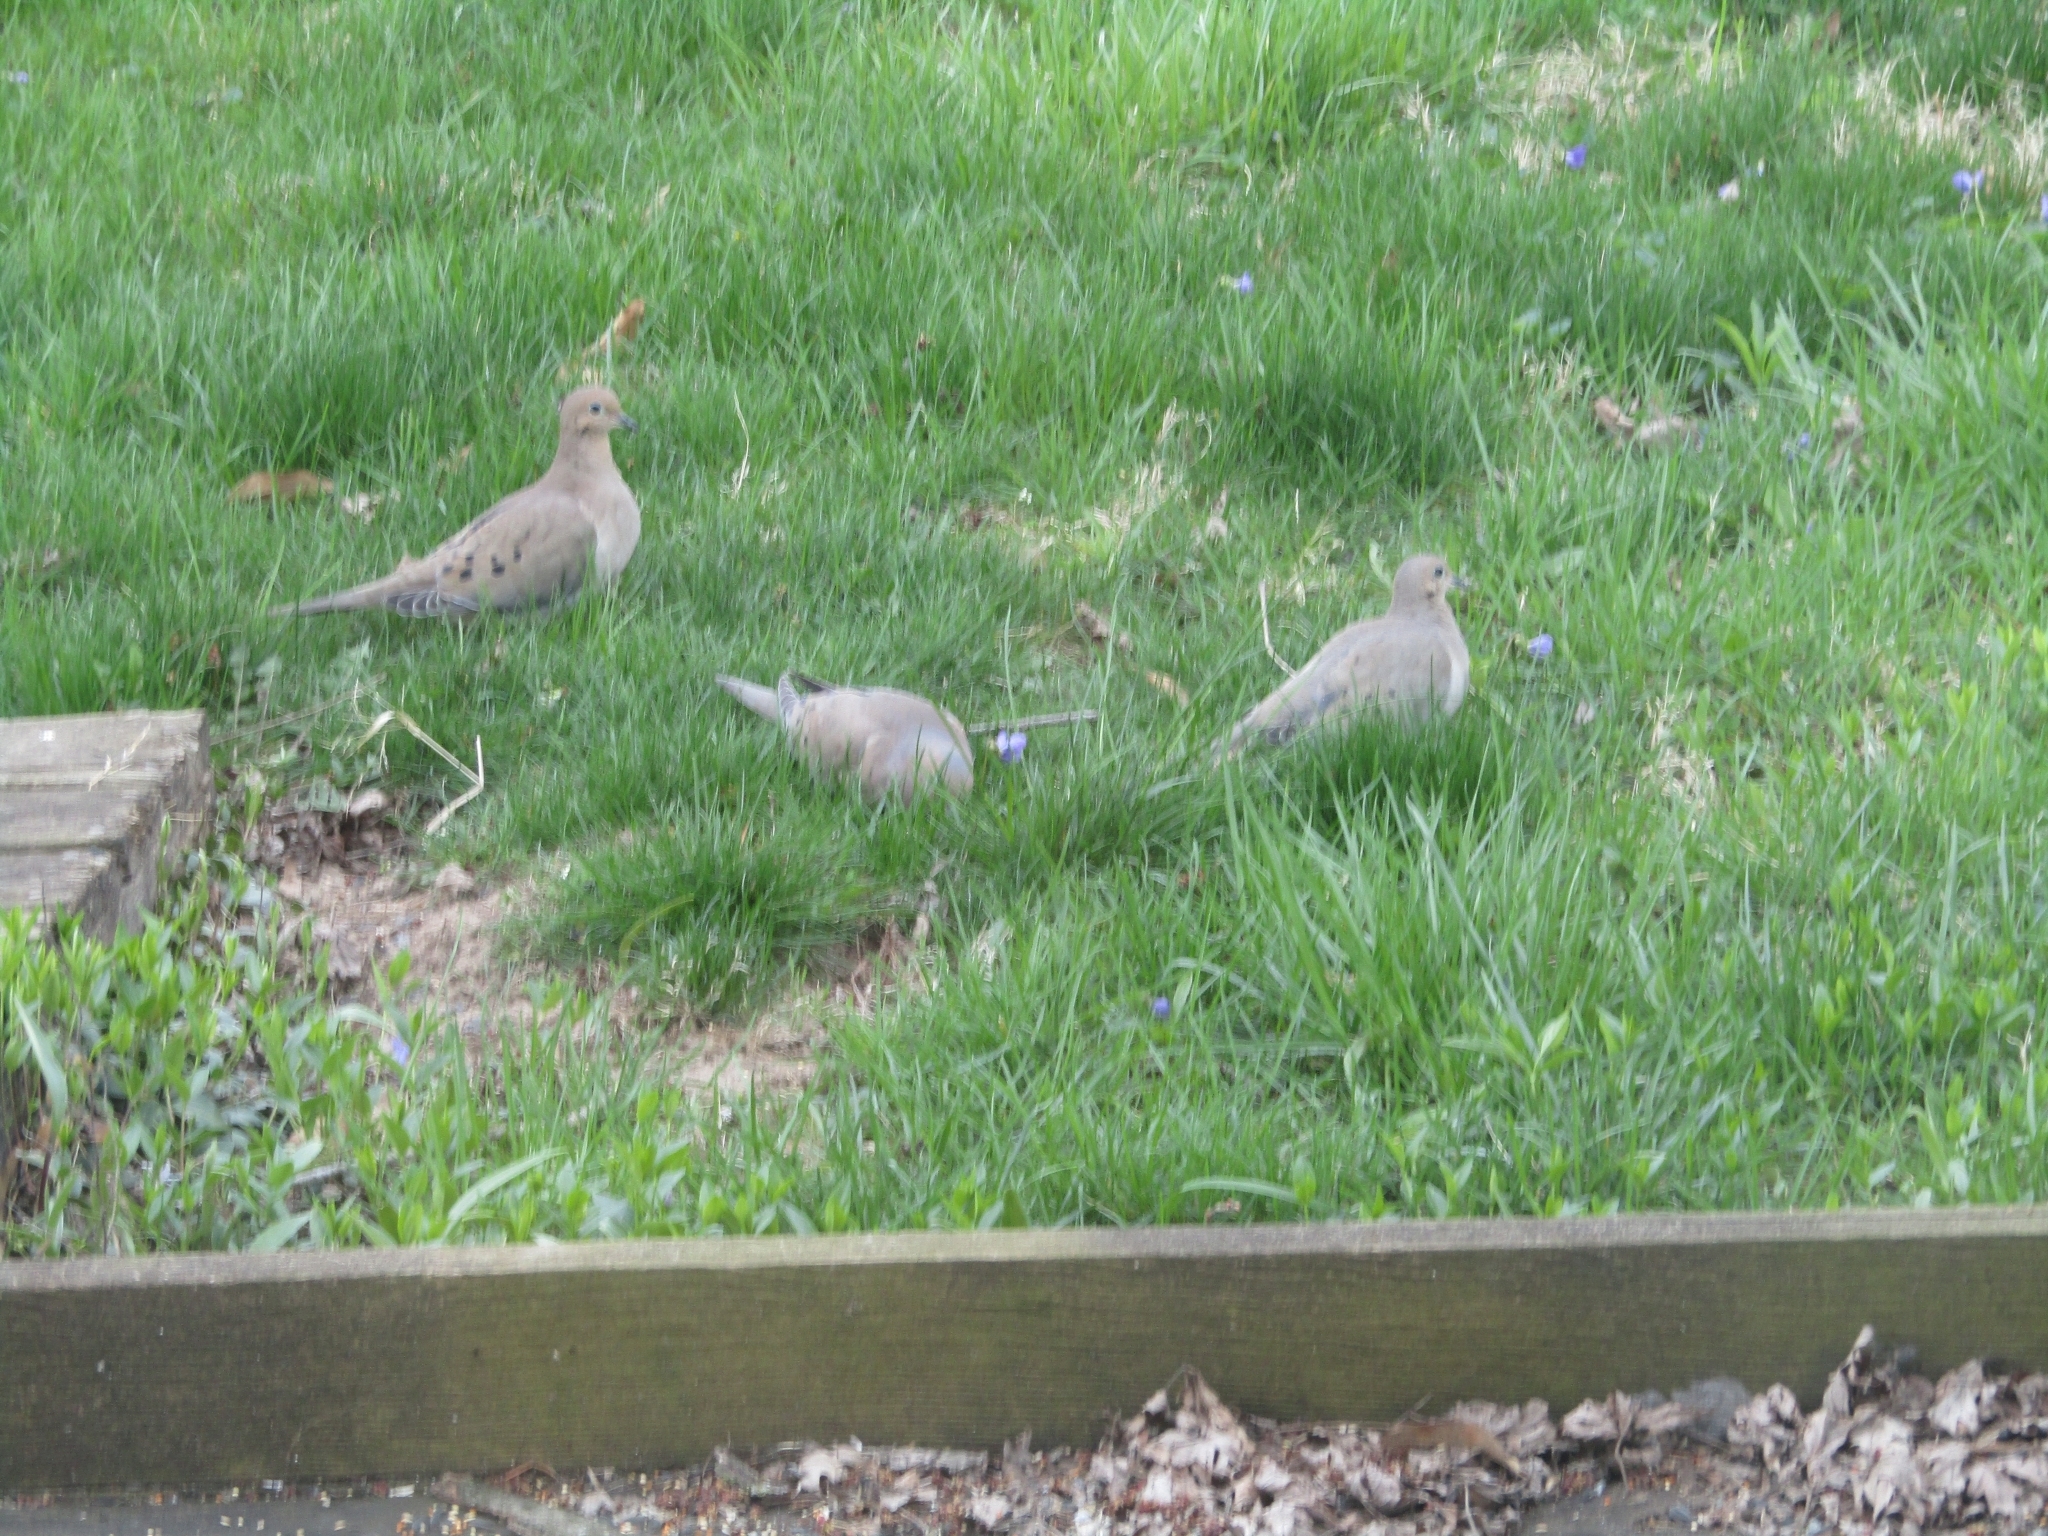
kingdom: Animalia
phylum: Chordata
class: Aves
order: Columbiformes
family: Columbidae
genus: Zenaida
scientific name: Zenaida macroura
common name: Mourning dove
